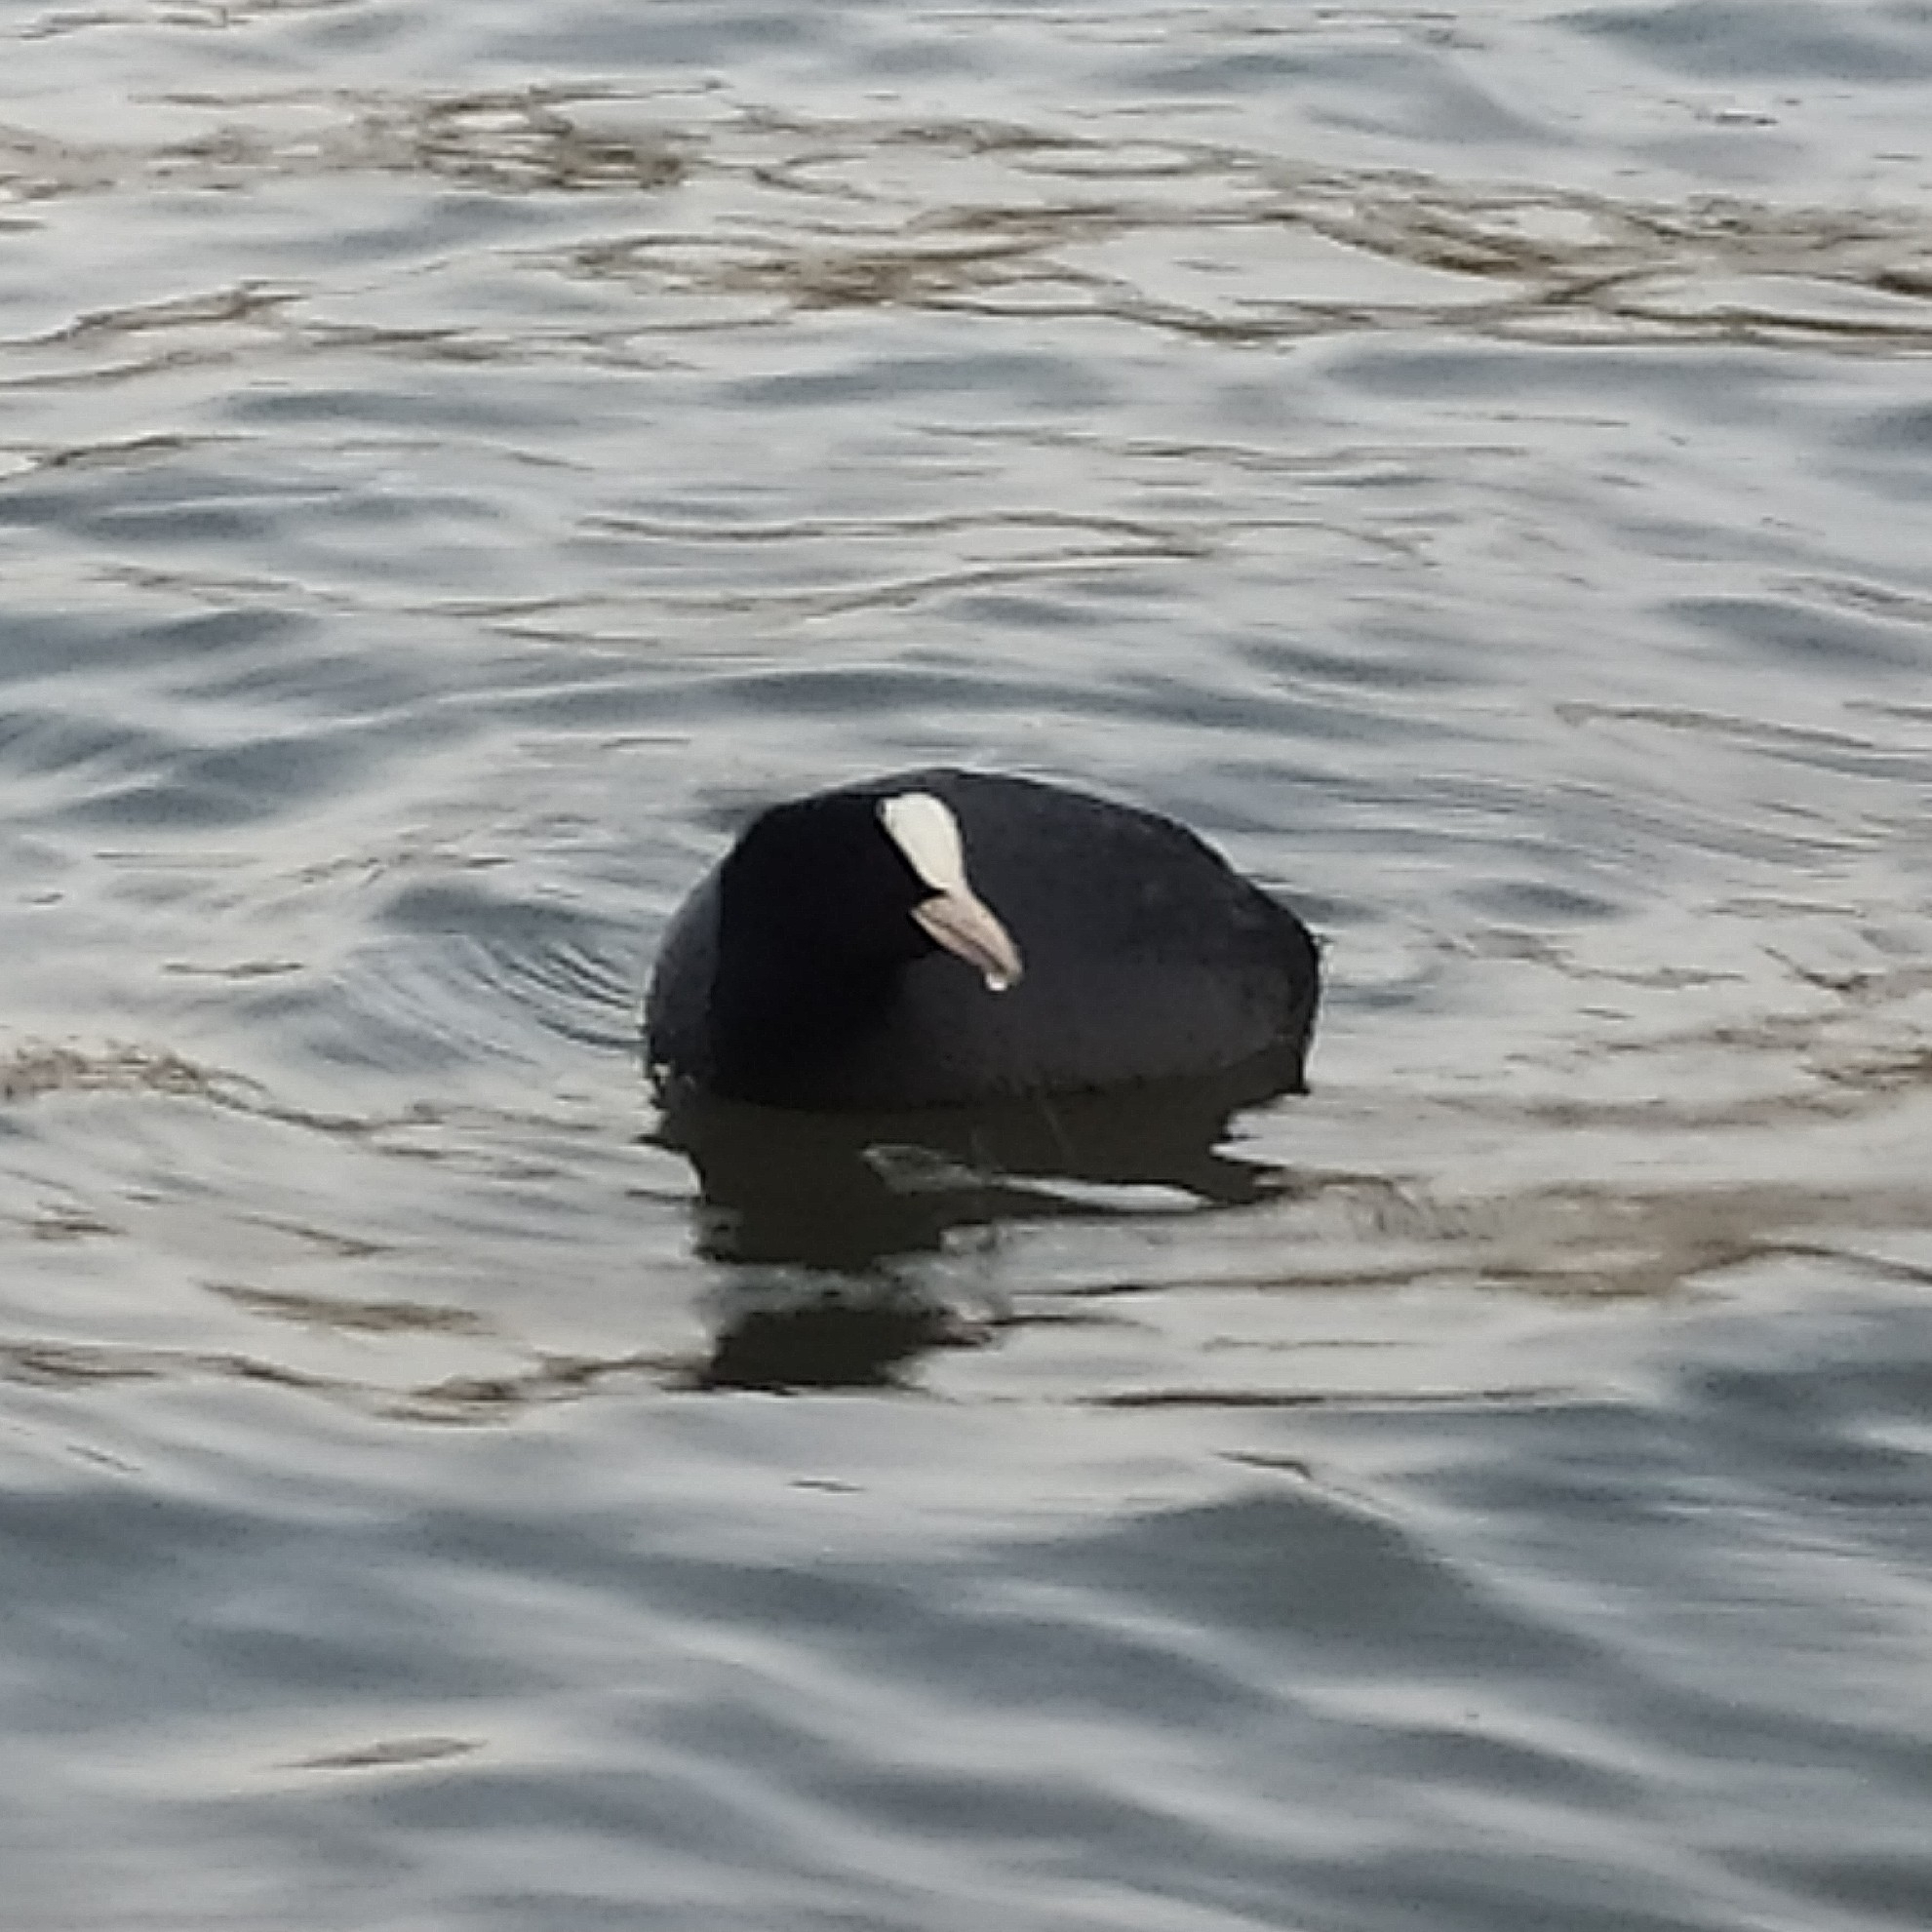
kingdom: Animalia
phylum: Chordata
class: Aves
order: Gruiformes
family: Rallidae
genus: Fulica
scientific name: Fulica atra
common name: Eurasian coot
